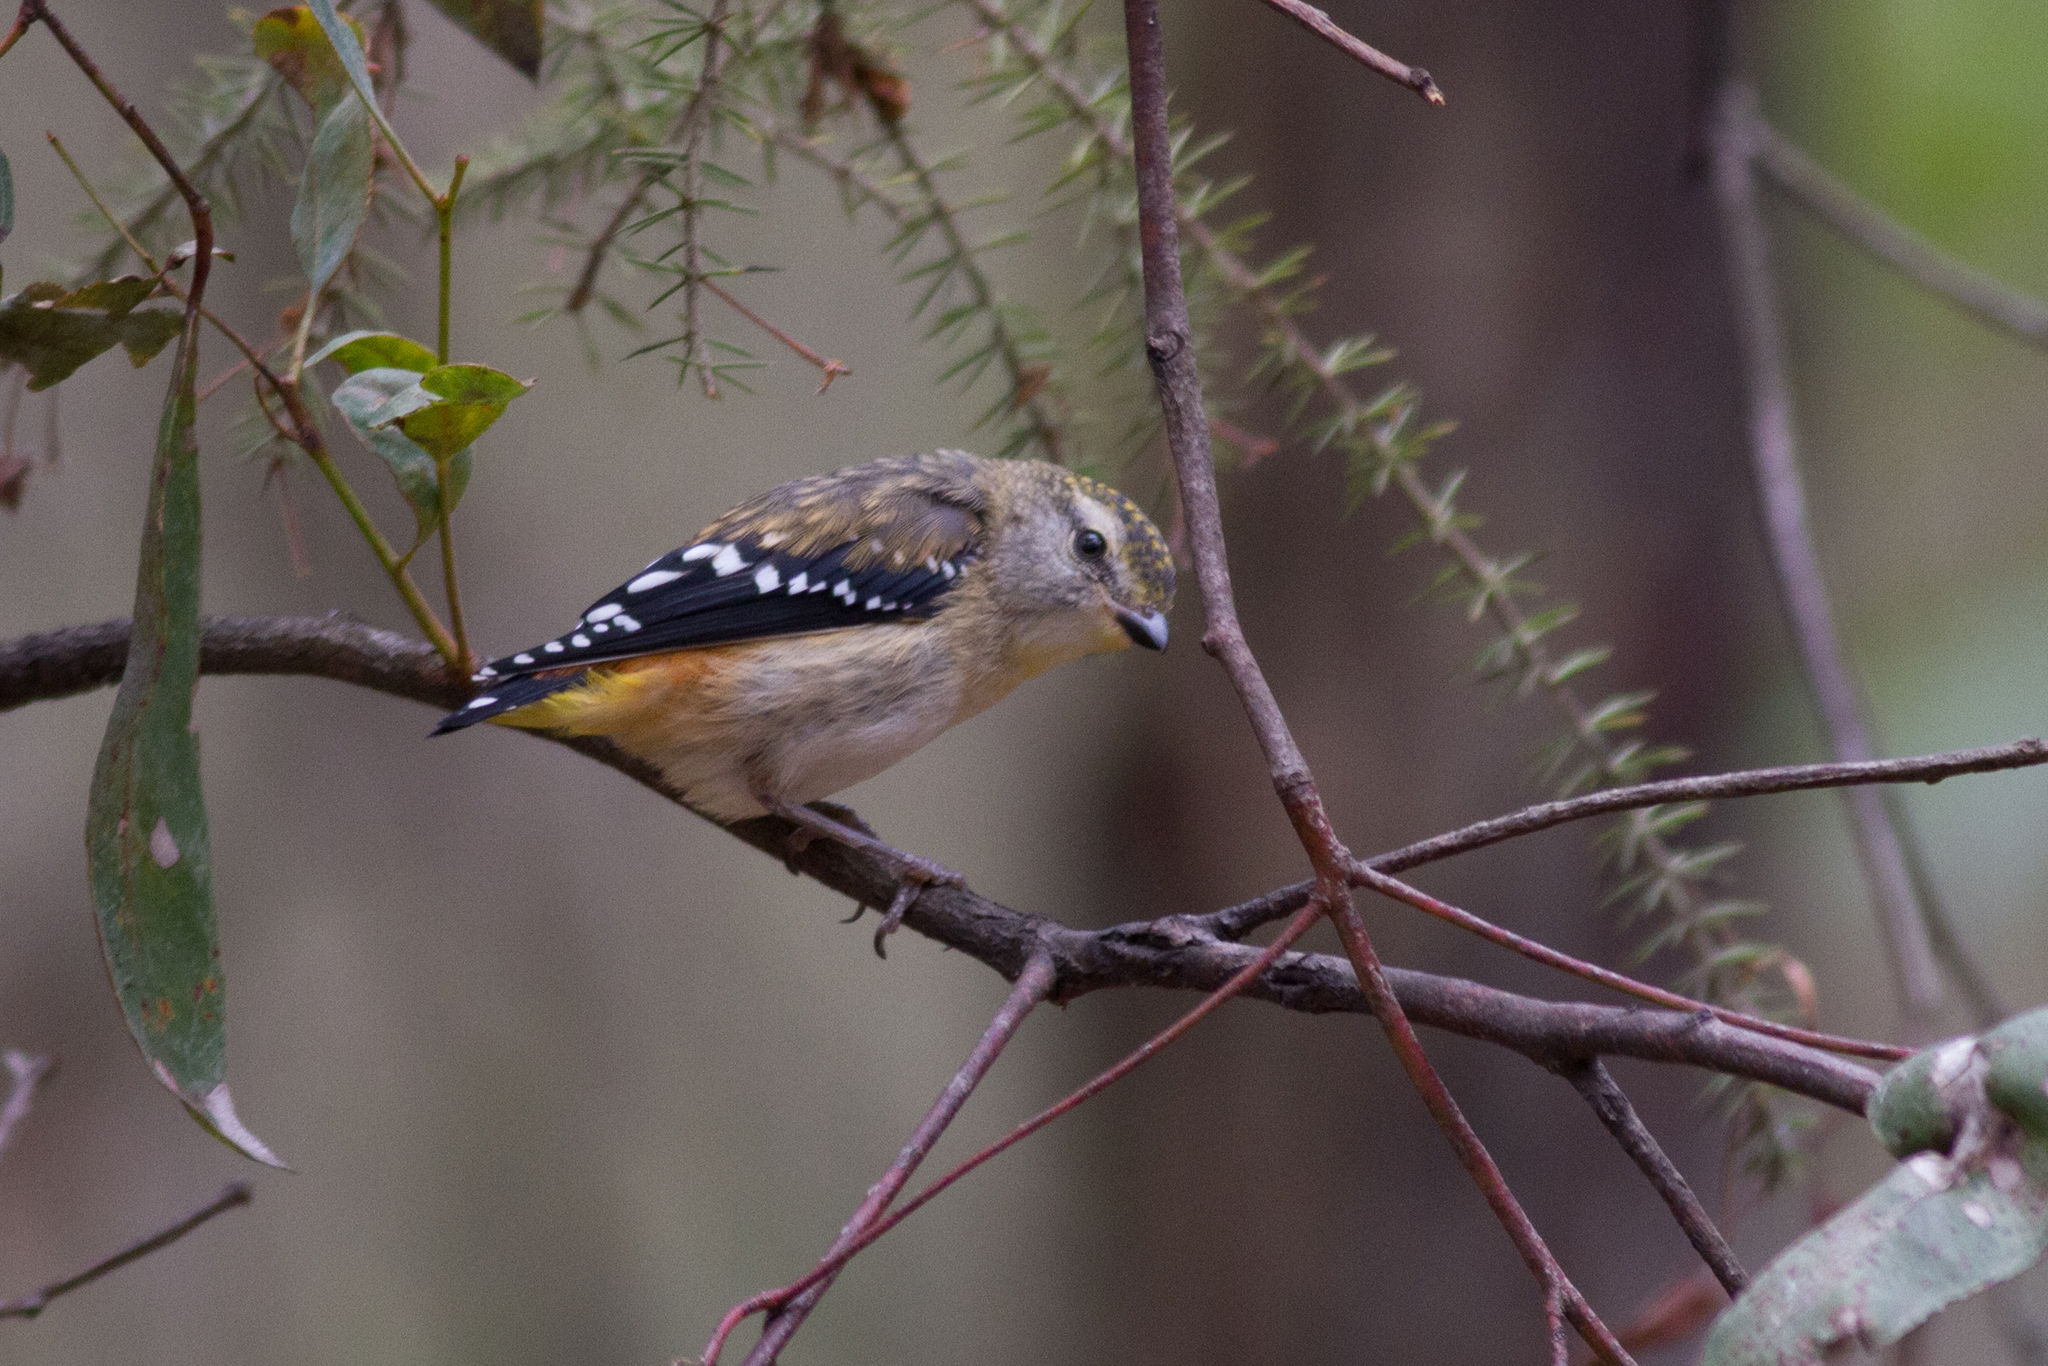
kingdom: Animalia
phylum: Chordata
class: Aves
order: Passeriformes
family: Pardalotidae
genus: Pardalotus
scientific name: Pardalotus punctatus
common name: Spotted pardalote
